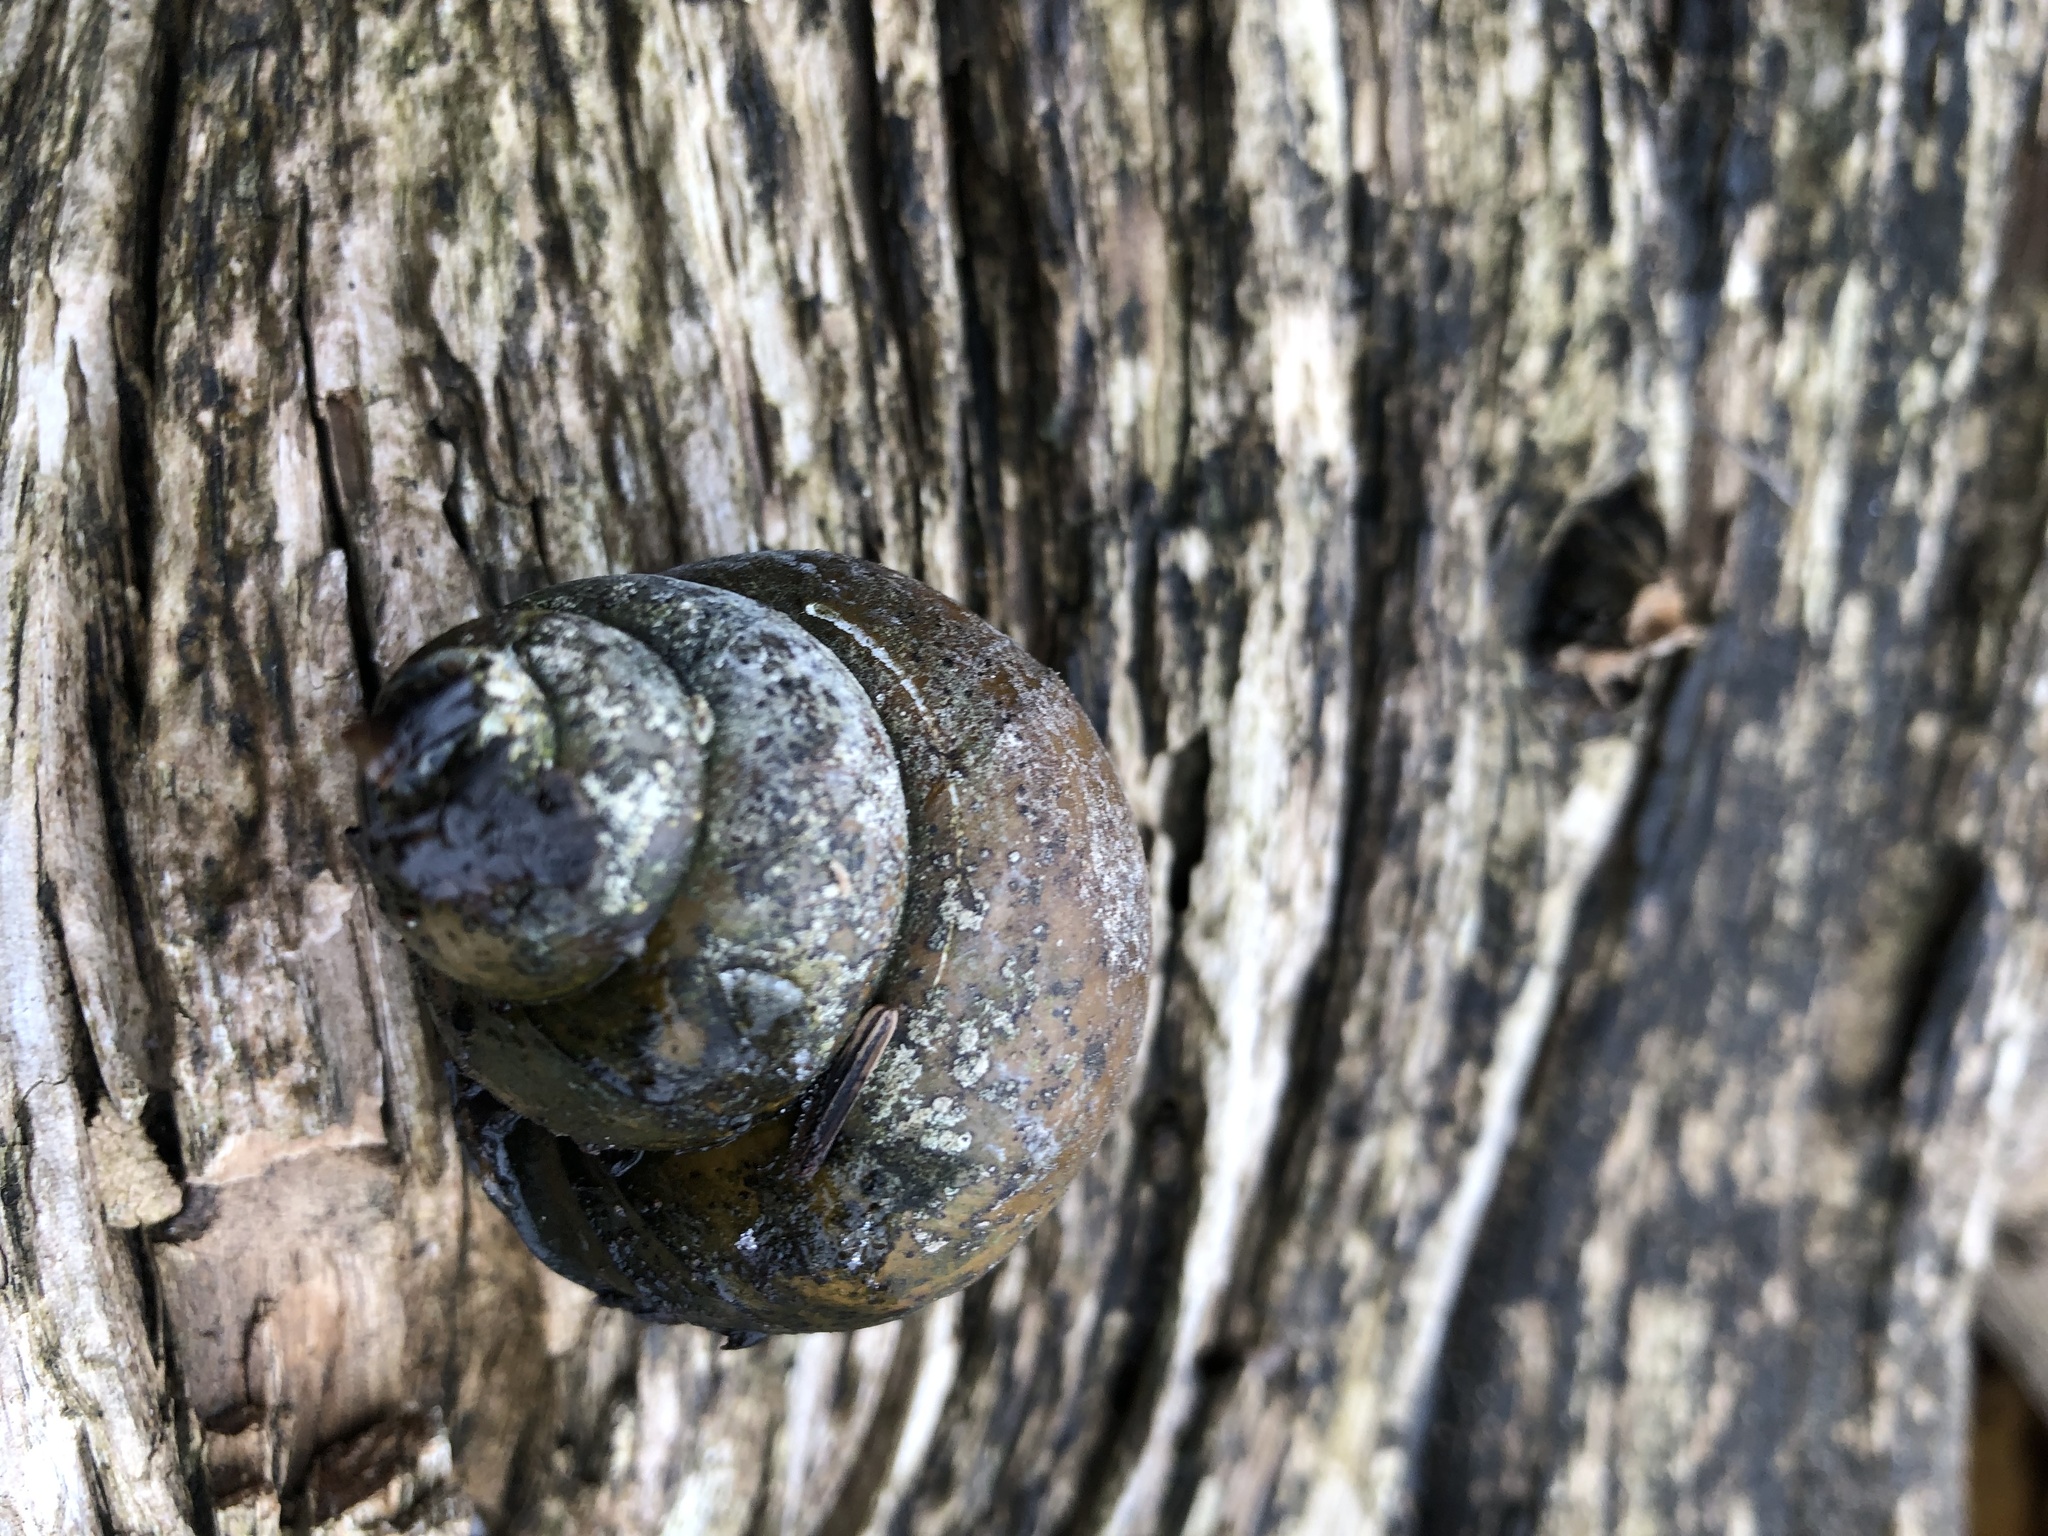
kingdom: Animalia
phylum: Mollusca
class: Gastropoda
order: Architaenioglossa
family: Viviparidae
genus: Cipangopaludina
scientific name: Cipangopaludina chinensis
